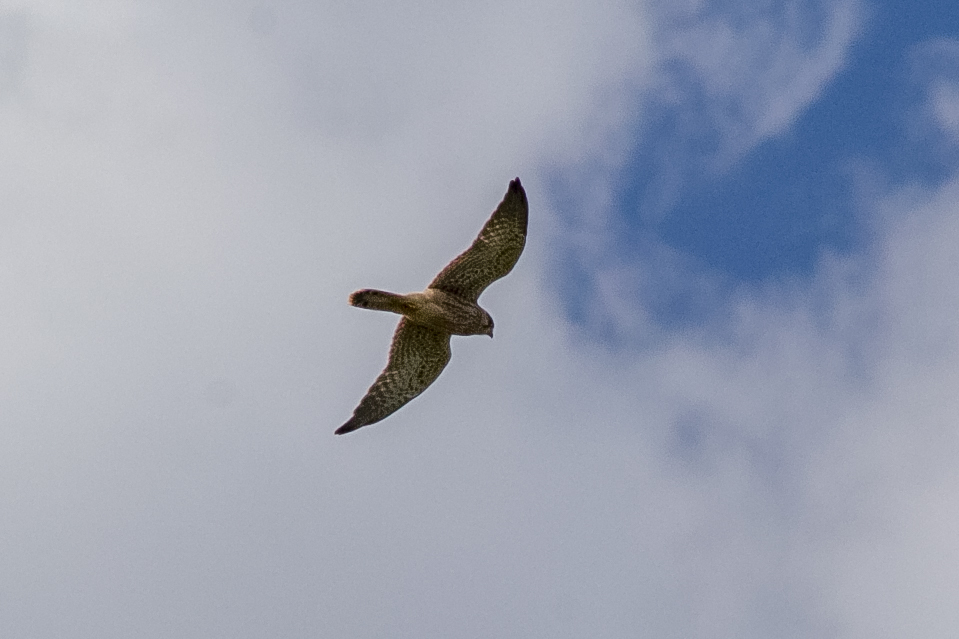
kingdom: Animalia
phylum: Chordata
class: Aves
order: Falconiformes
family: Falconidae
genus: Falco
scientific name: Falco tinnunculus
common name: Common kestrel
